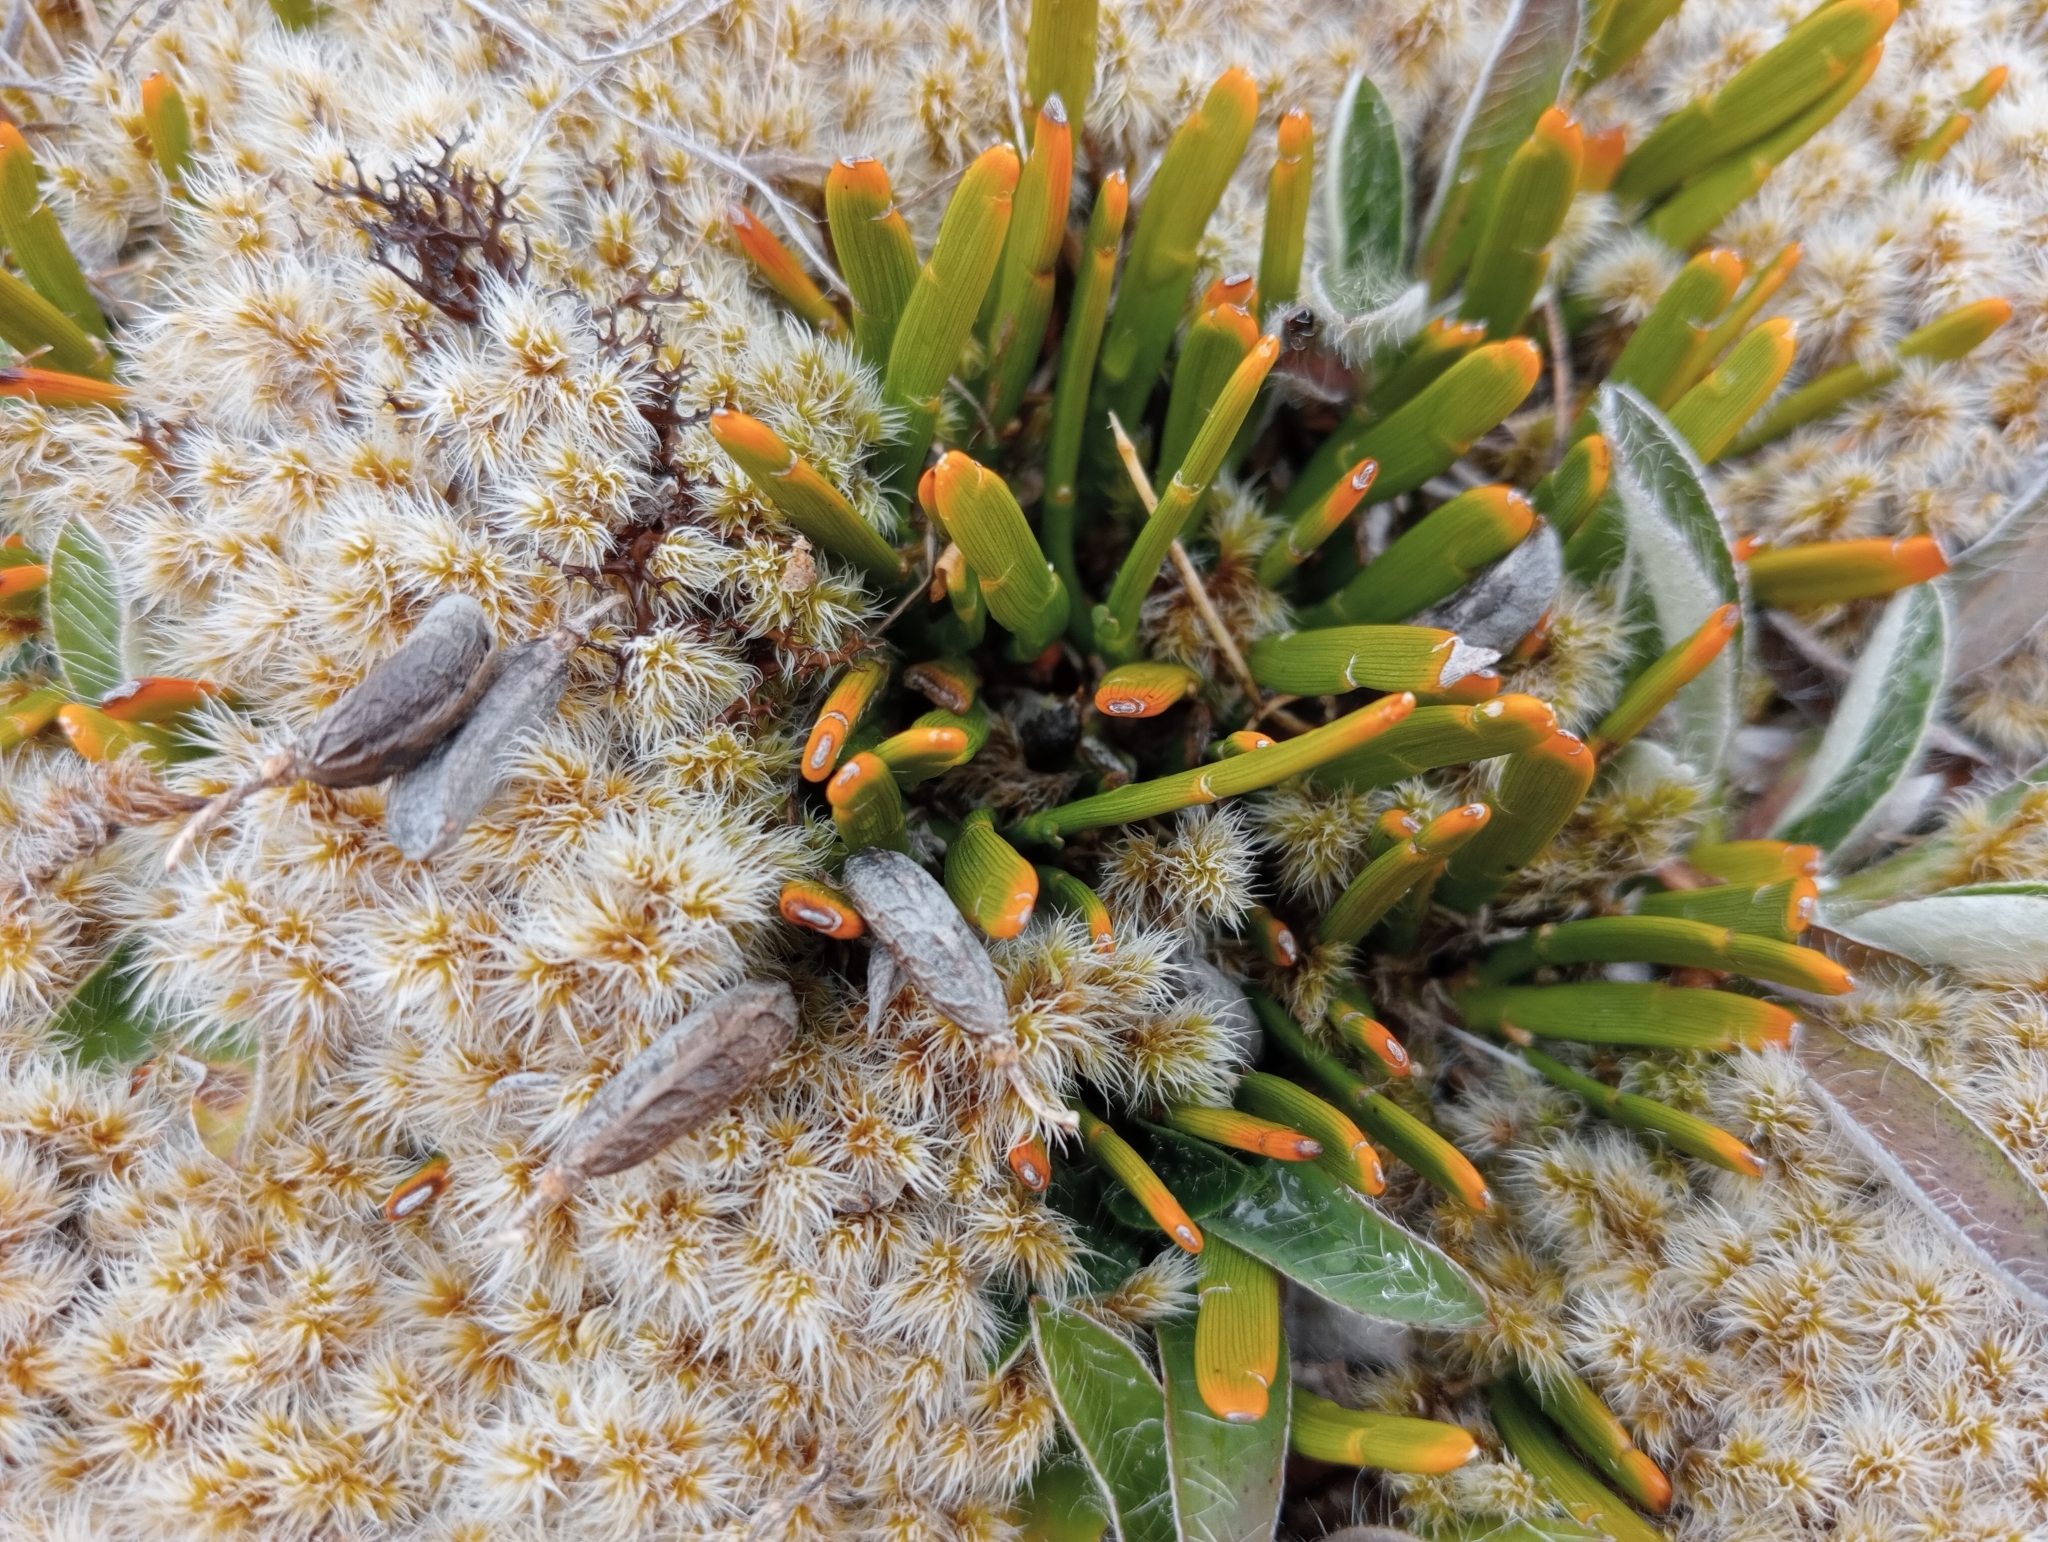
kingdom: Plantae
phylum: Tracheophyta
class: Magnoliopsida
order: Fabales
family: Fabaceae
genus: Carmichaelia
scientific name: Carmichaelia vexillata
